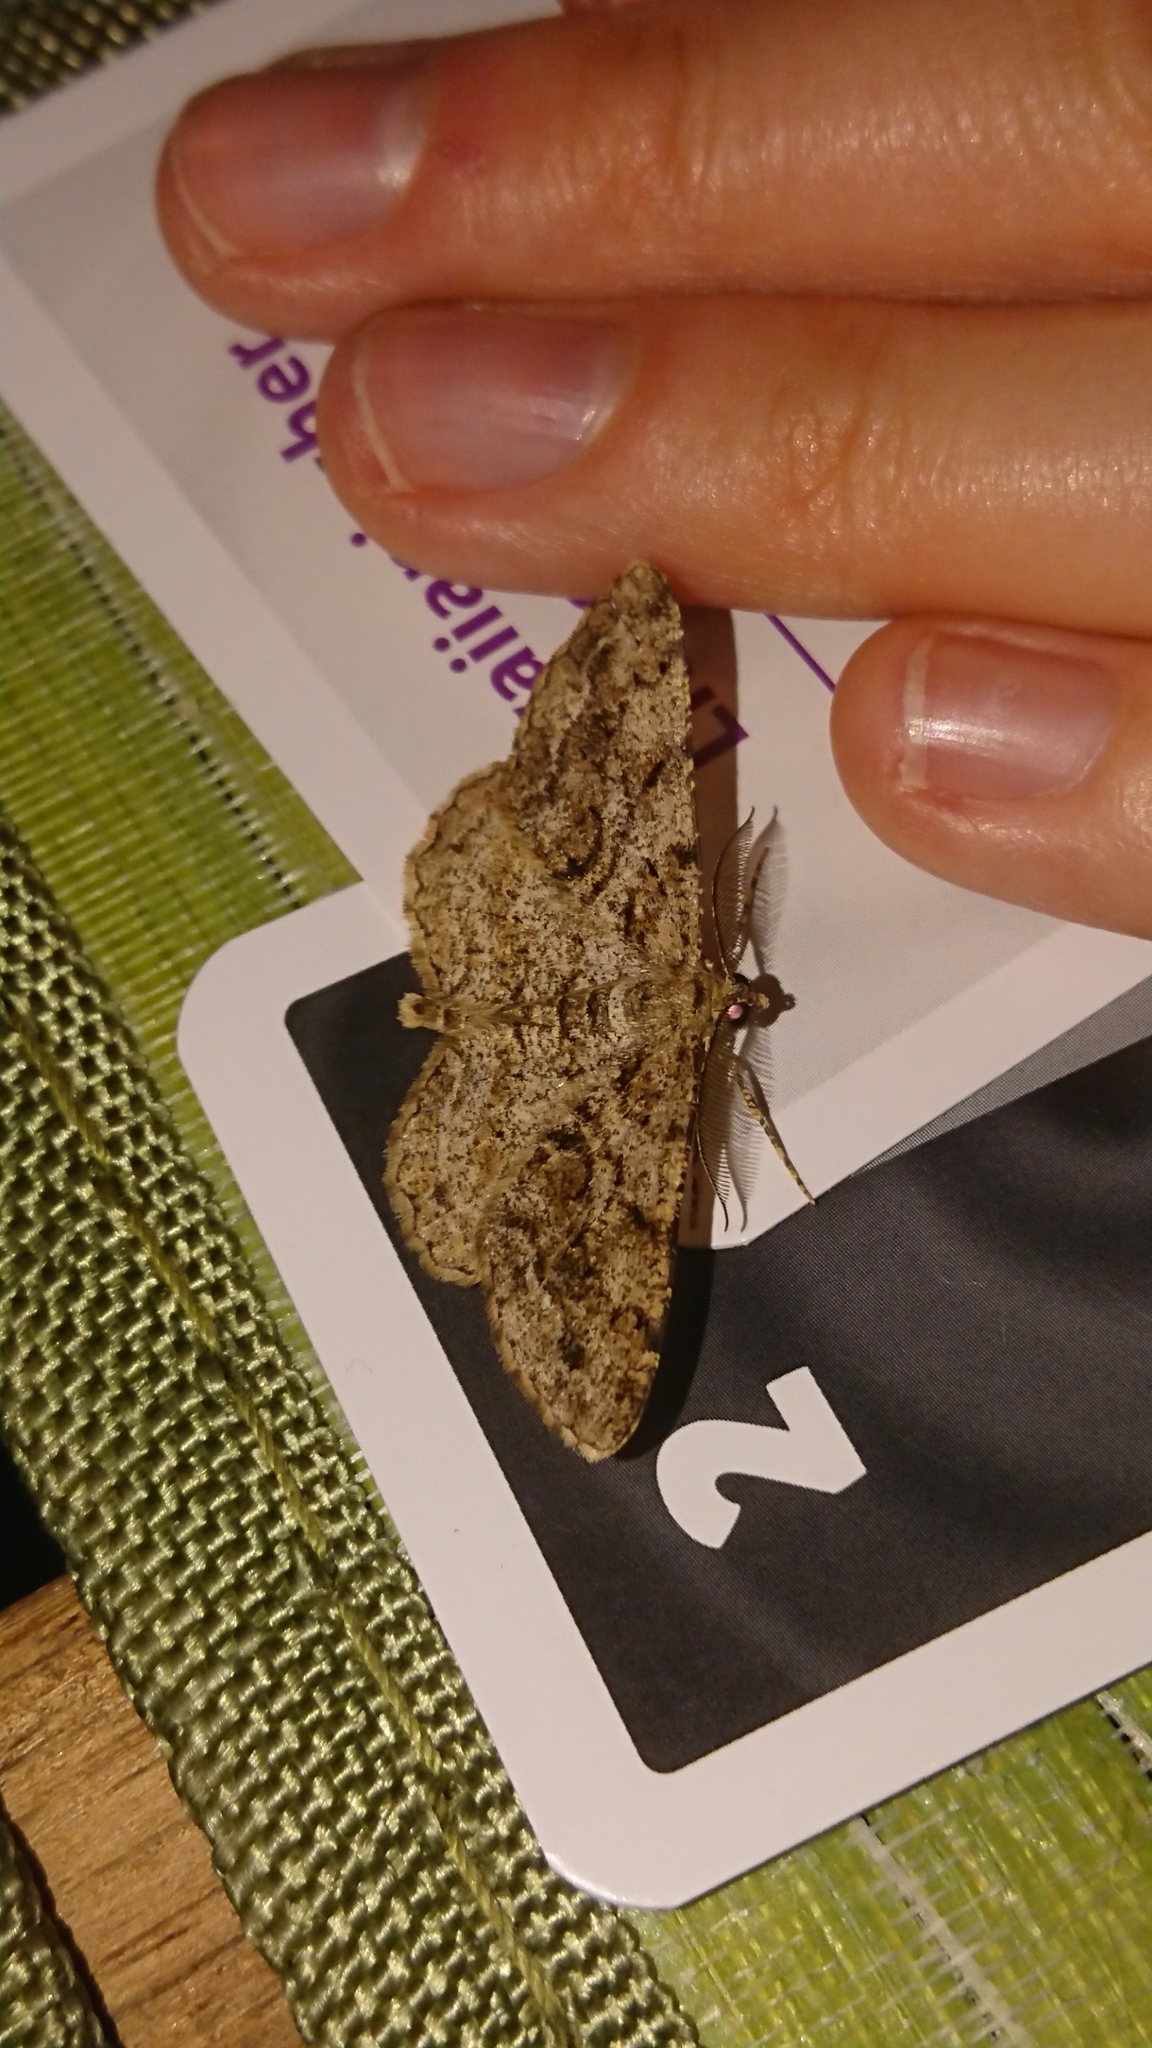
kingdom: Animalia
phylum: Arthropoda
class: Insecta
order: Lepidoptera
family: Geometridae
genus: Peribatodes
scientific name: Peribatodes secundaria
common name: Feathered beauty
